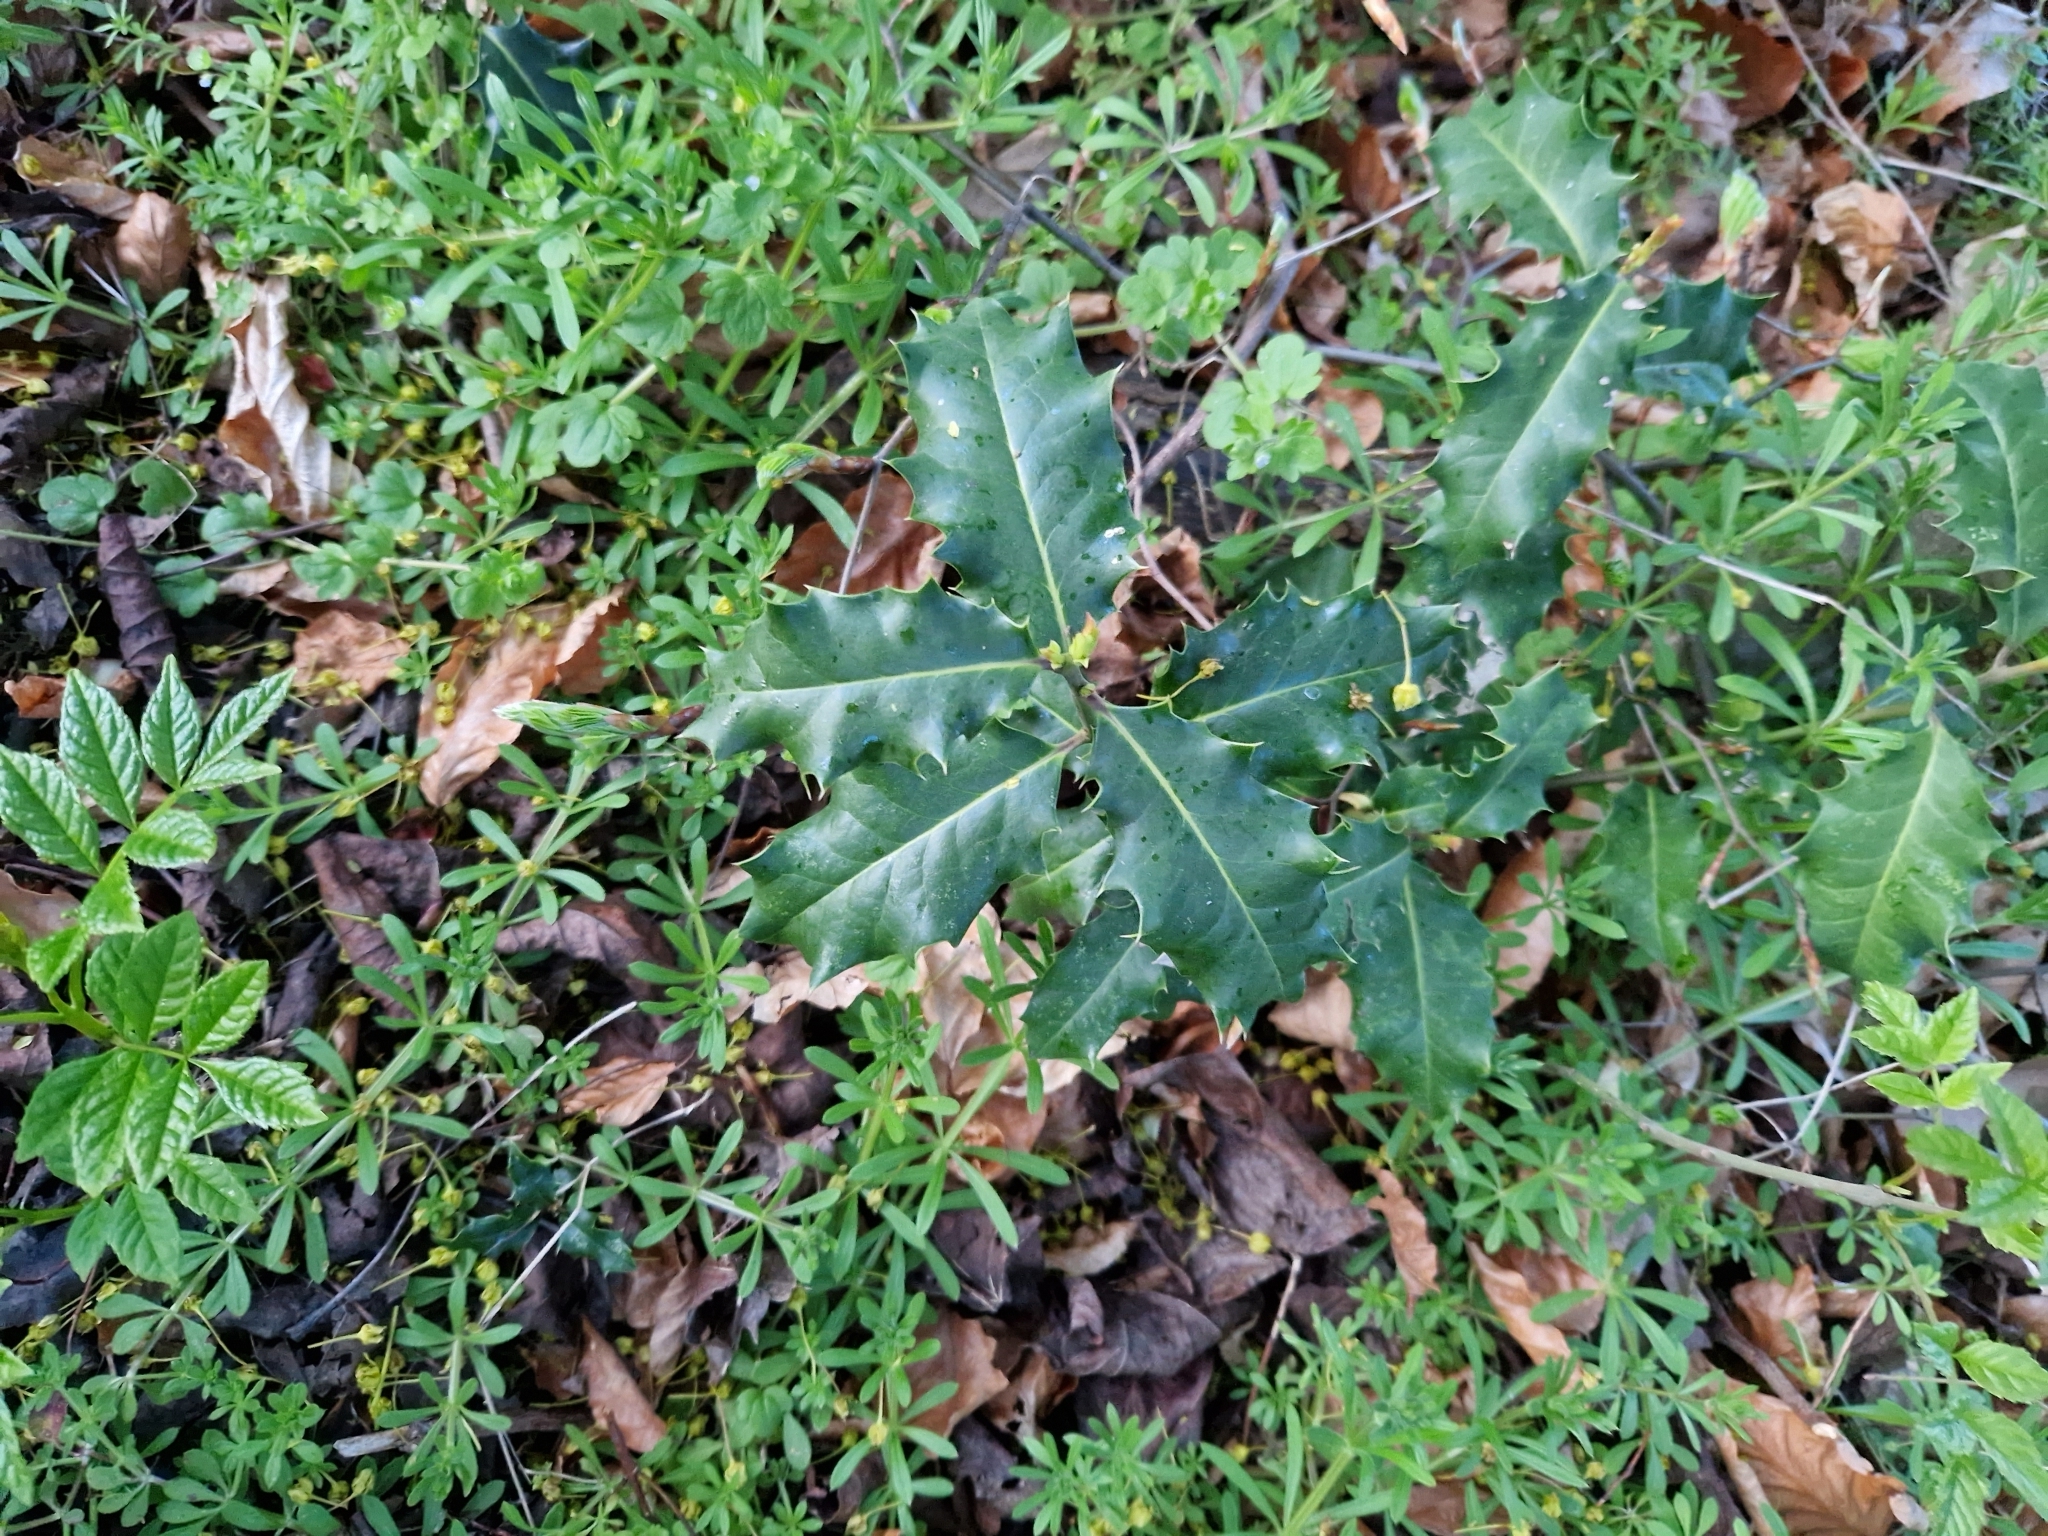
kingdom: Plantae
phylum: Tracheophyta
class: Magnoliopsida
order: Aquifoliales
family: Aquifoliaceae
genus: Ilex
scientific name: Ilex aquifolium
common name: English holly
